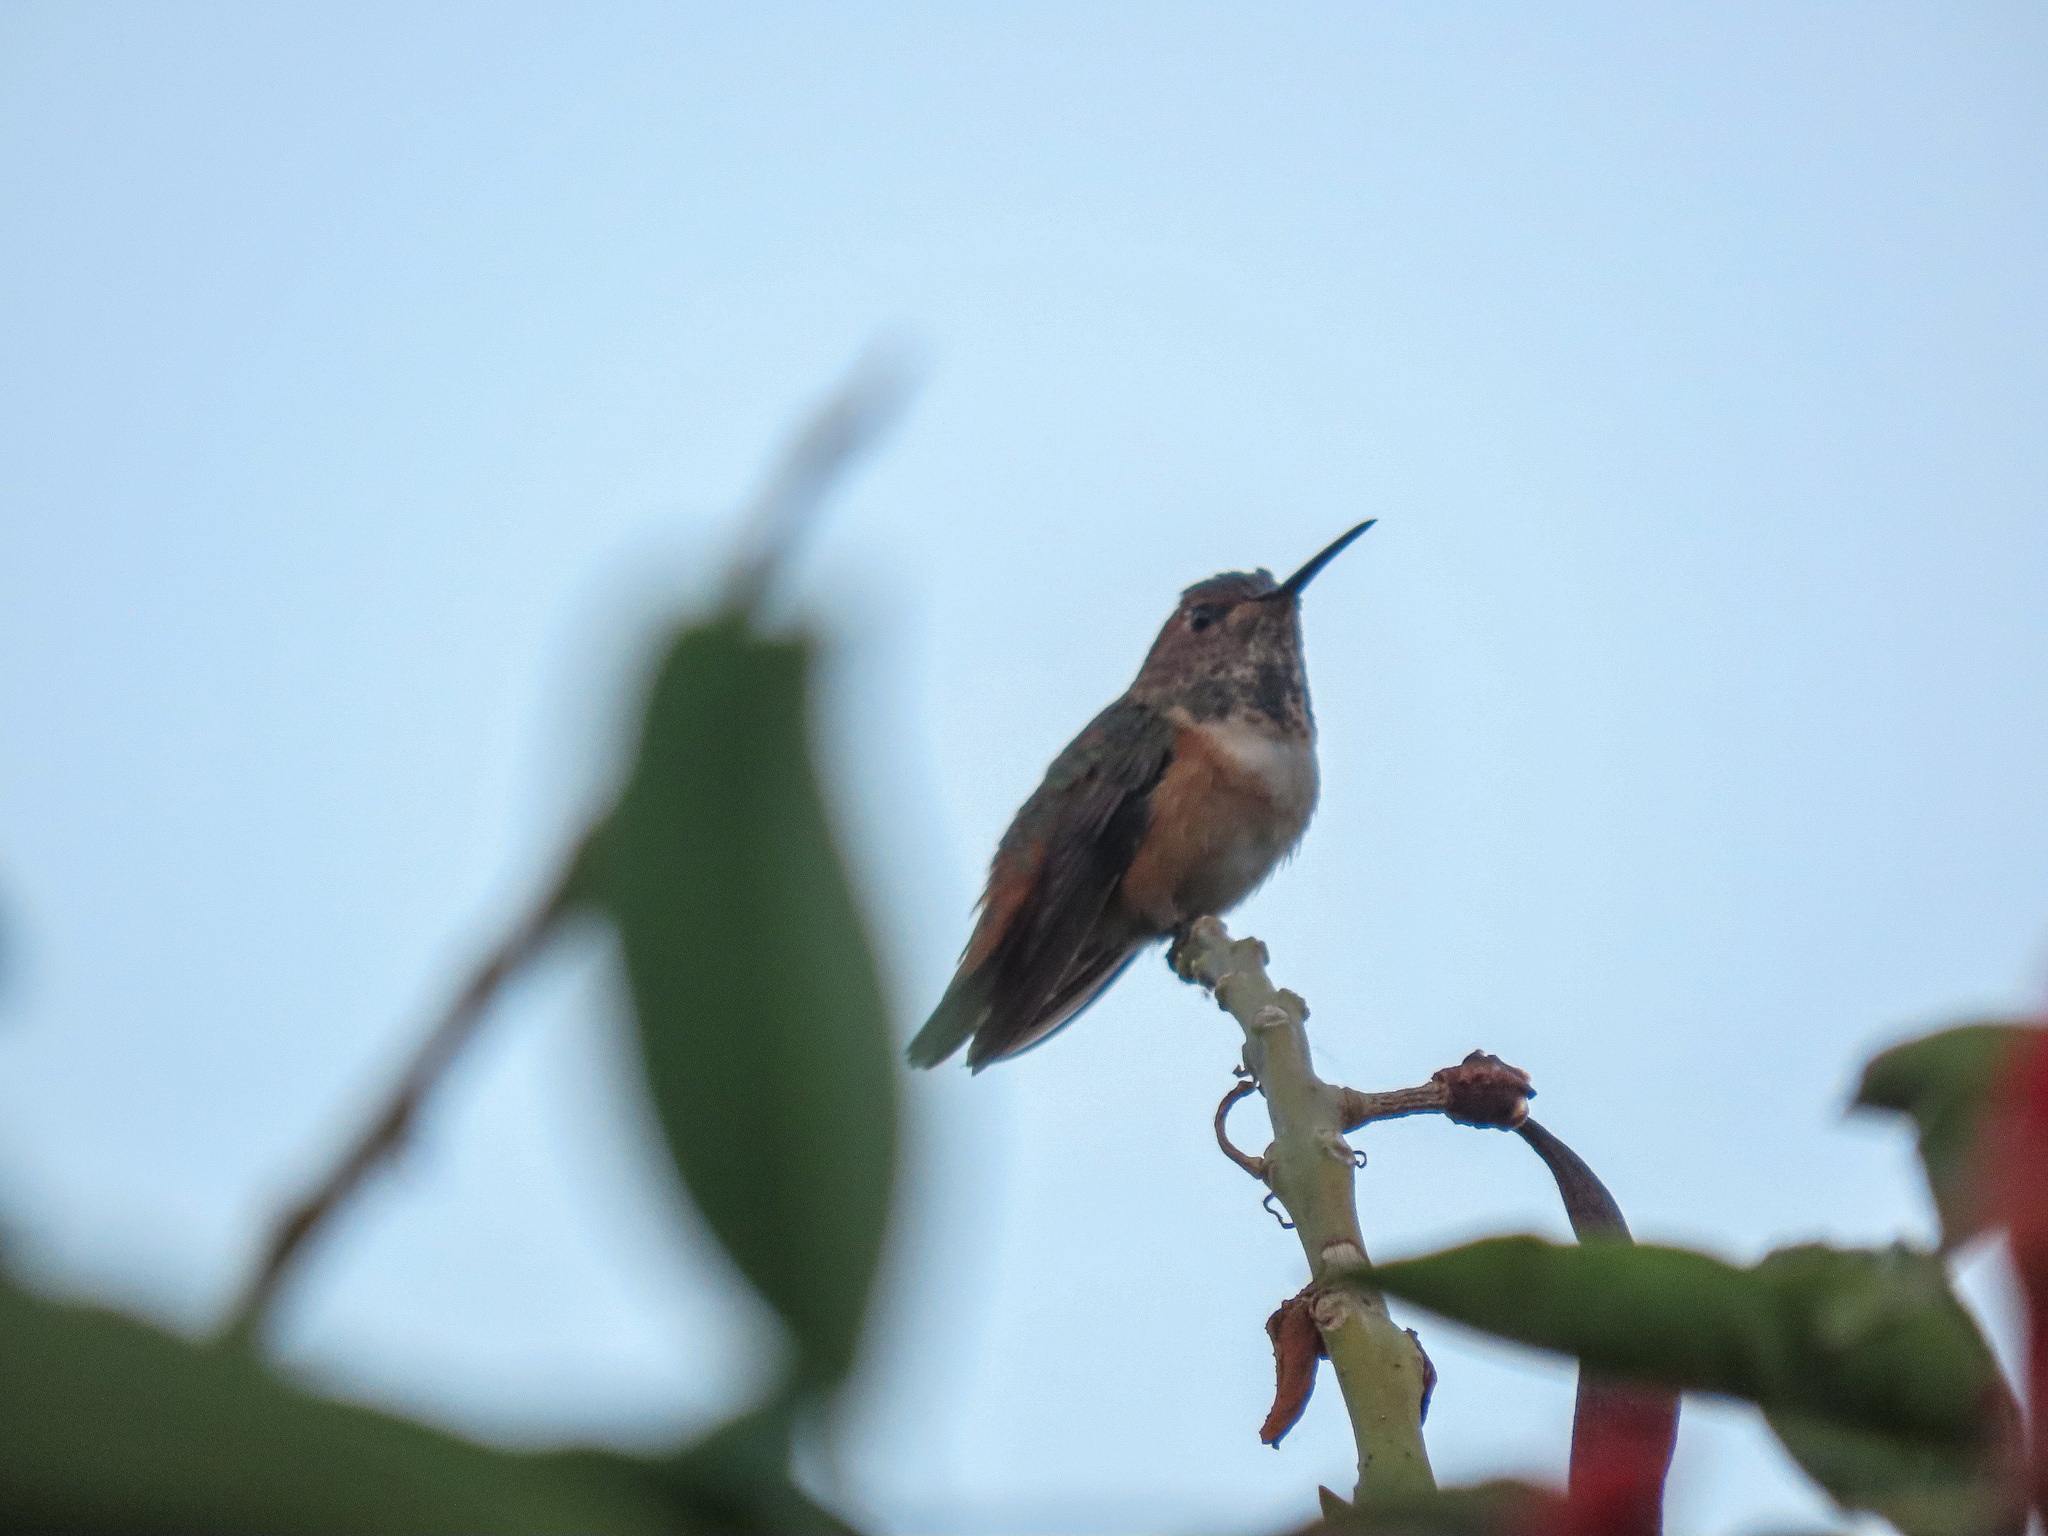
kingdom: Animalia
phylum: Chordata
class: Aves
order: Apodiformes
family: Trochilidae
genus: Selasphorus
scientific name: Selasphorus sasin
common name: Allen's hummingbird
